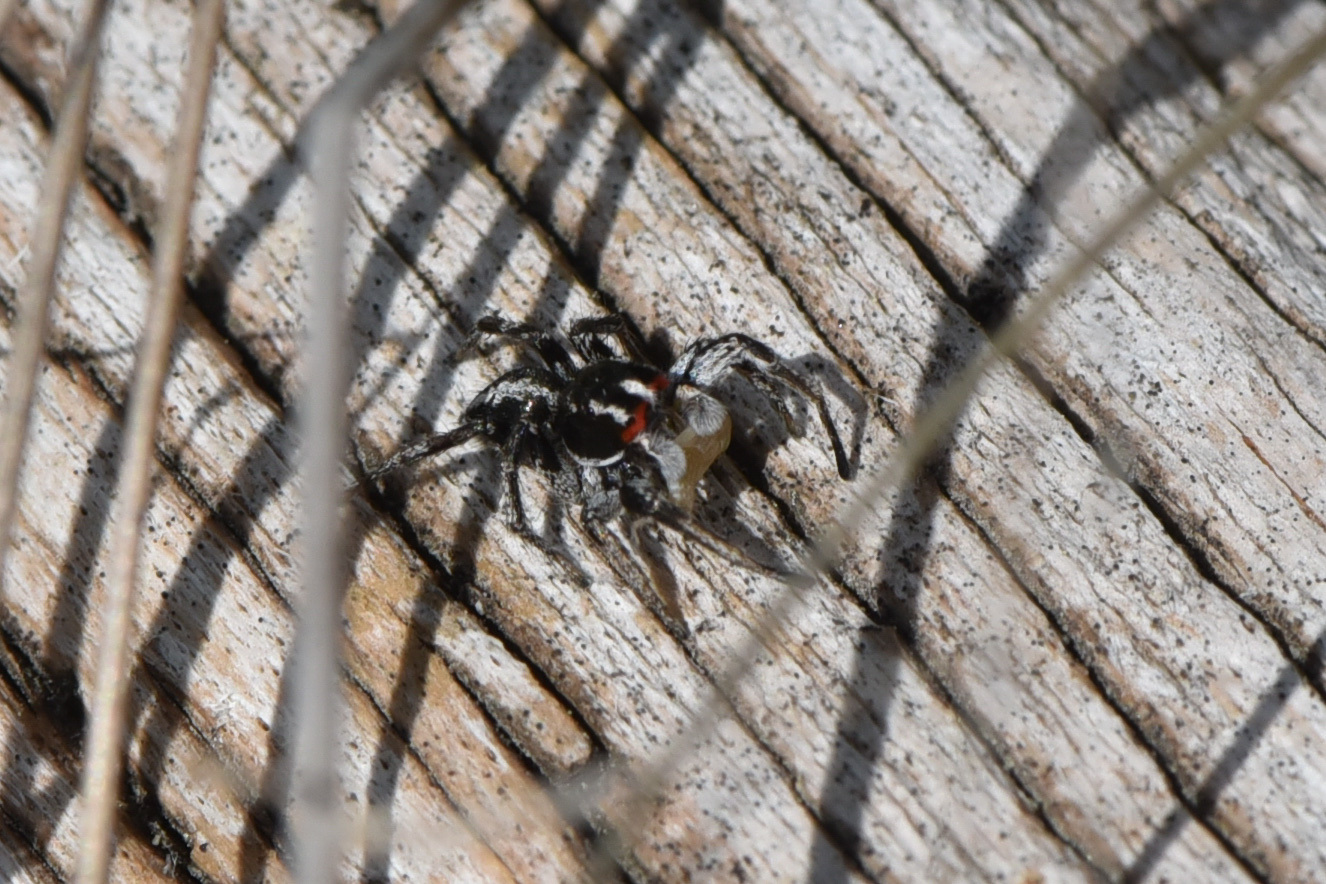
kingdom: Animalia
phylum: Arthropoda
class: Arachnida
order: Araneae
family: Salticidae
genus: Habronattus
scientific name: Habronattus sansoni
